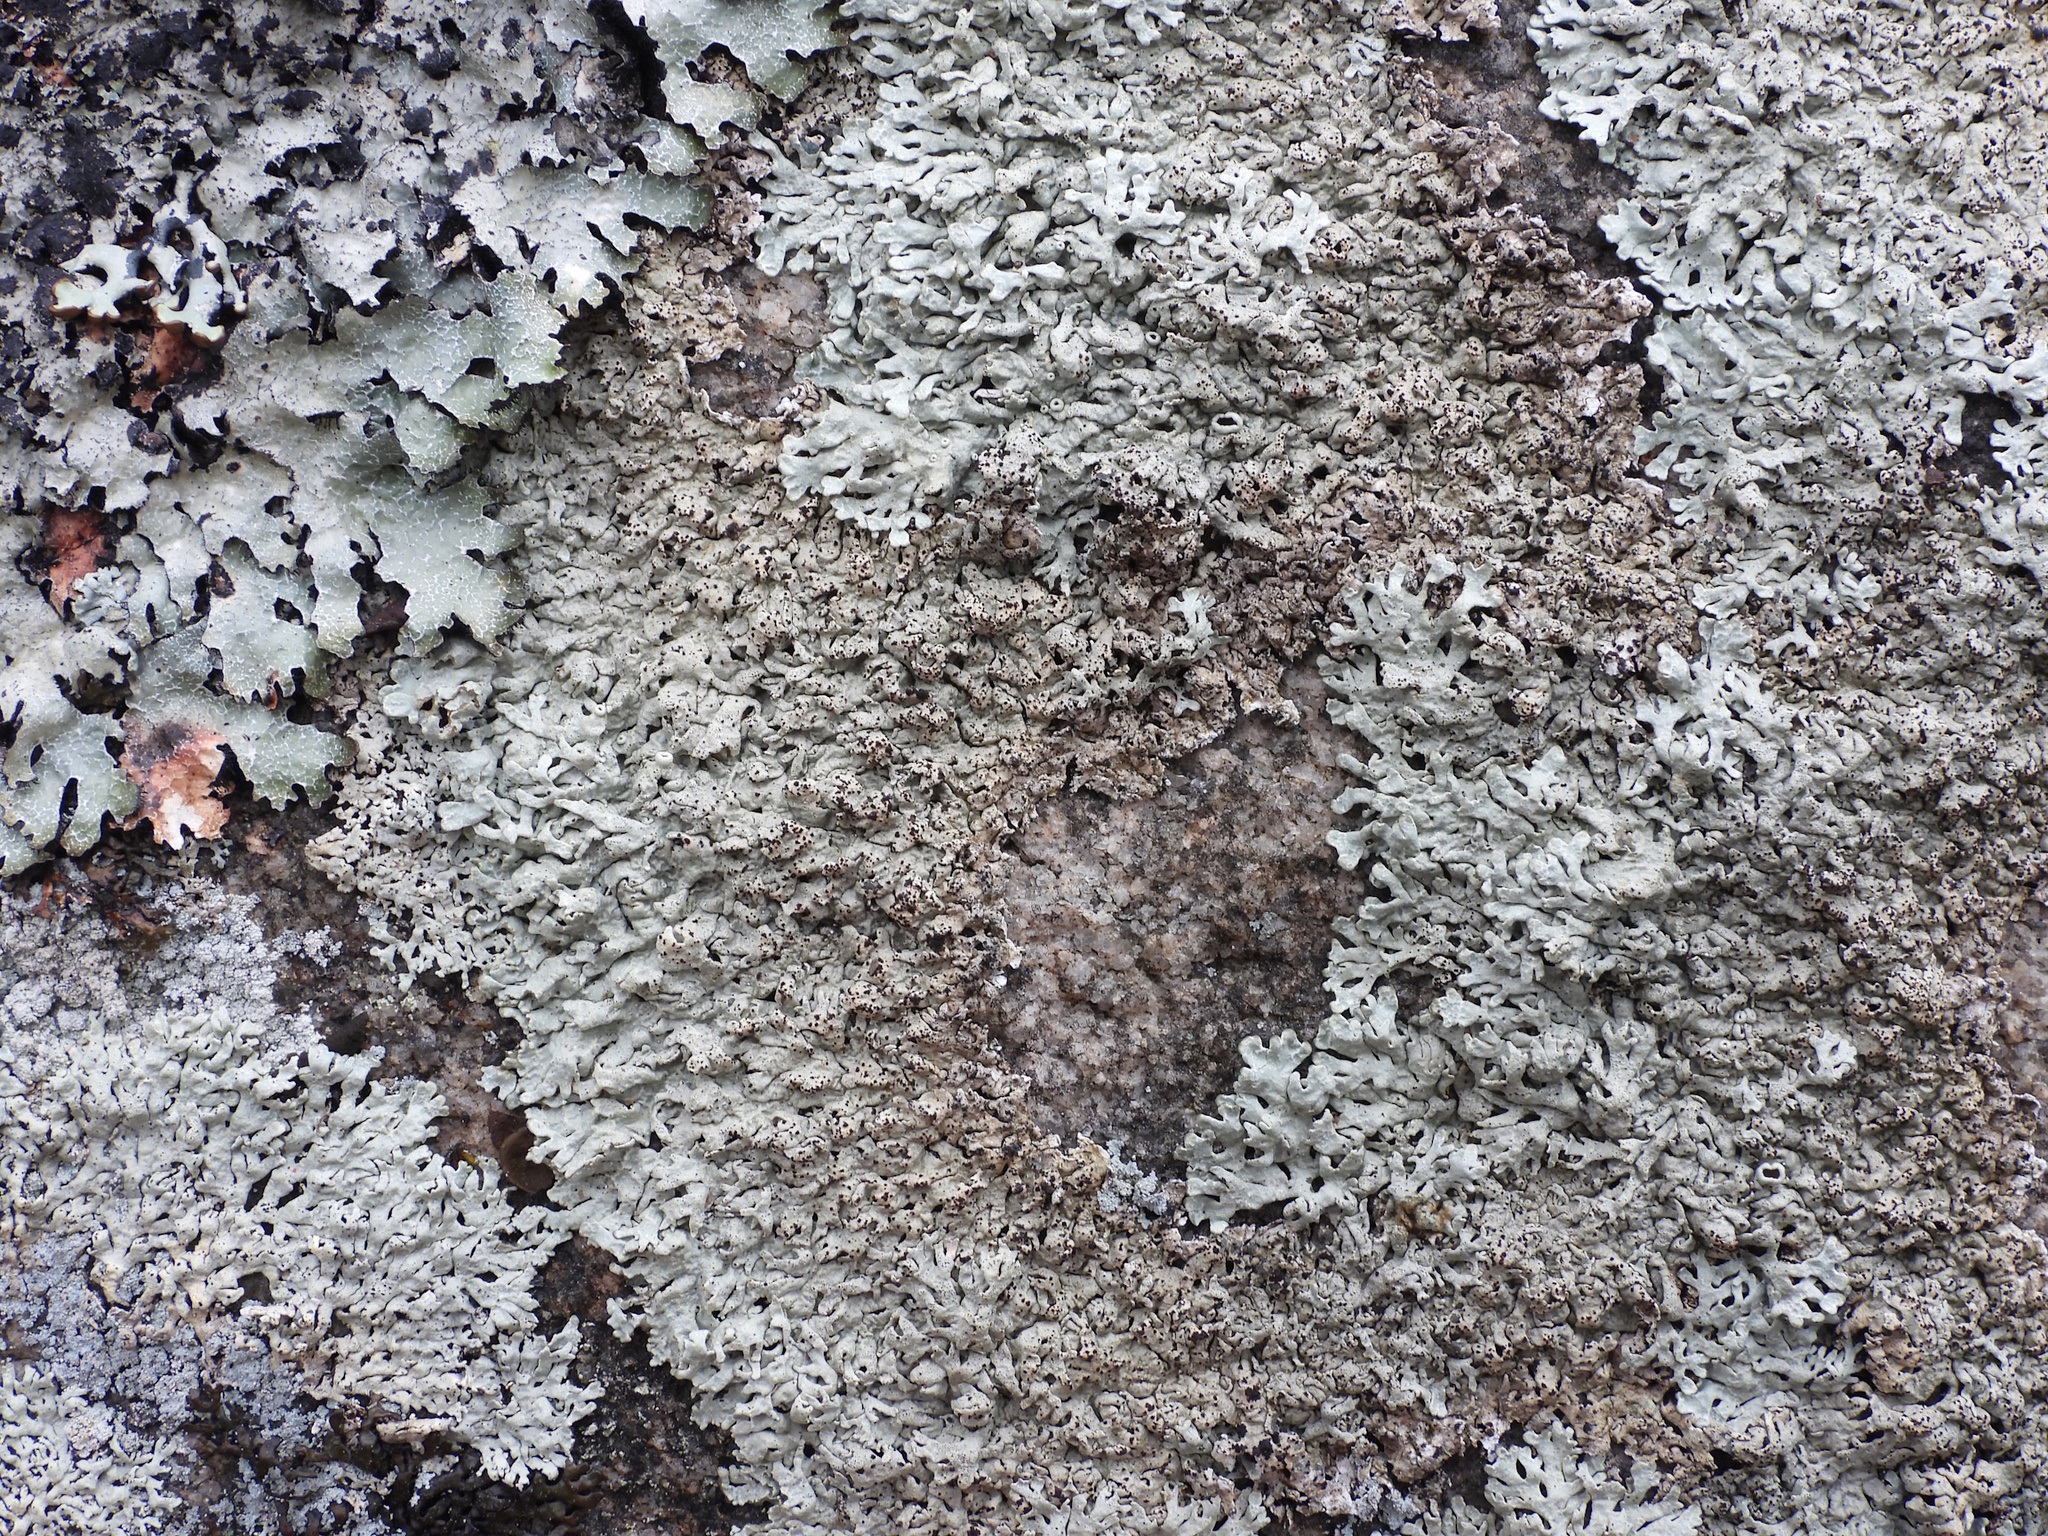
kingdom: Fungi
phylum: Ascomycota
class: Lecanoromycetes
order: Lecanorales
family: Parmeliaceae
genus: Arctoparmelia
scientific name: Arctoparmelia centrifuga
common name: Concentric ring lichen
